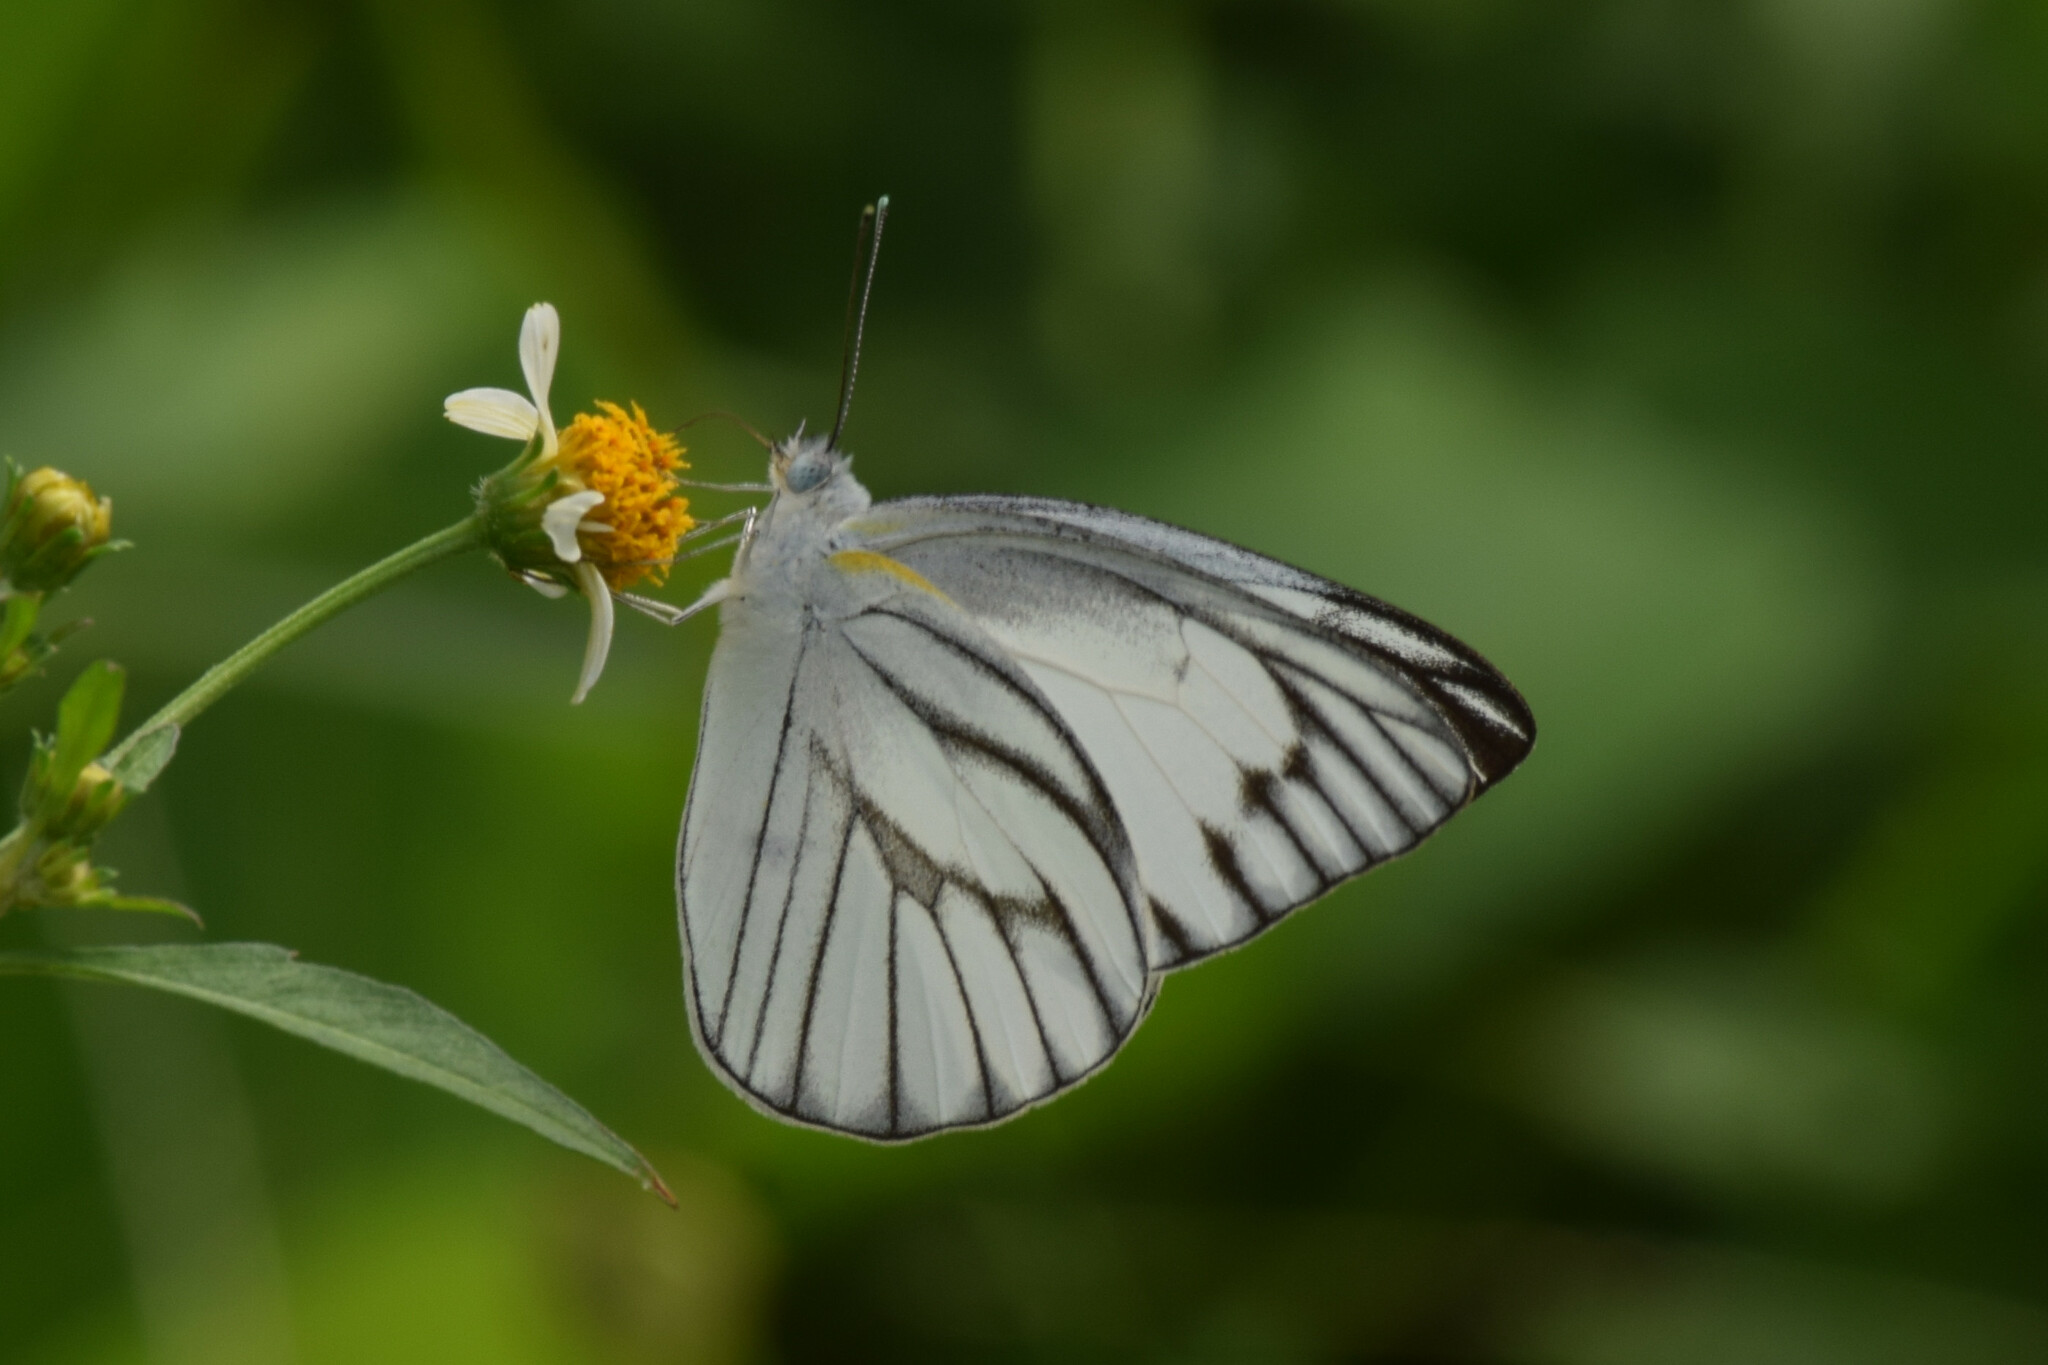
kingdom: Animalia
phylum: Arthropoda
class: Insecta
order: Lepidoptera
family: Pieridae
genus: Appias
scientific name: Appias libythea
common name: Striped albatross
